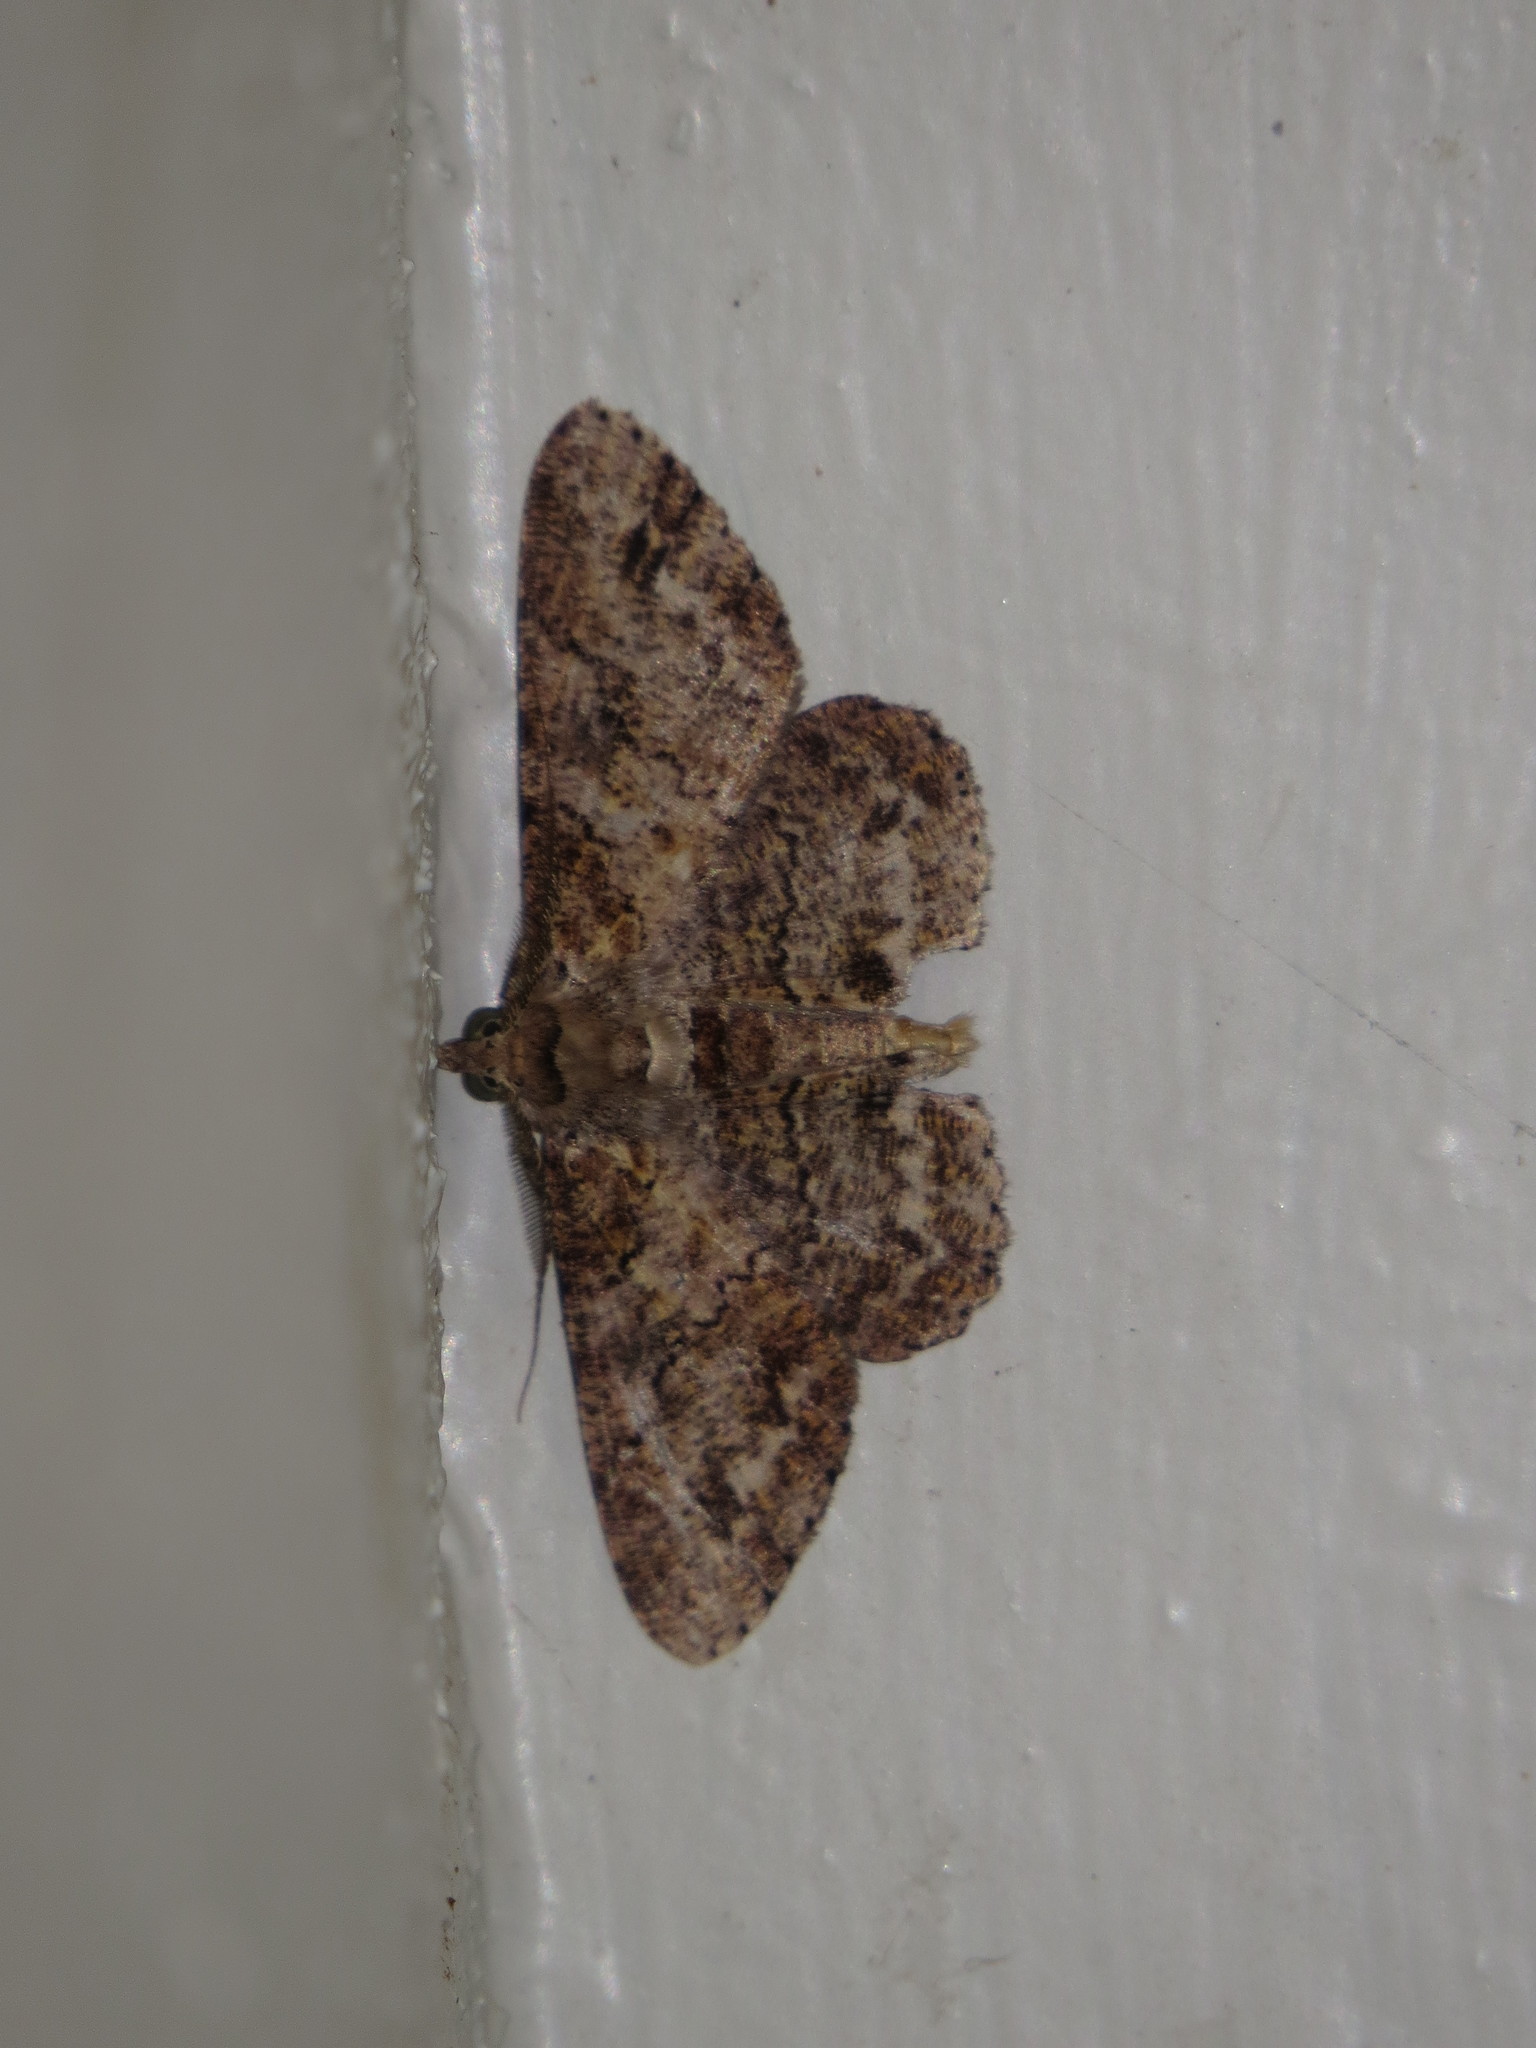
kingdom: Animalia
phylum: Arthropoda
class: Insecta
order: Lepidoptera
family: Geometridae
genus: Cleora
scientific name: Cleora repetita
